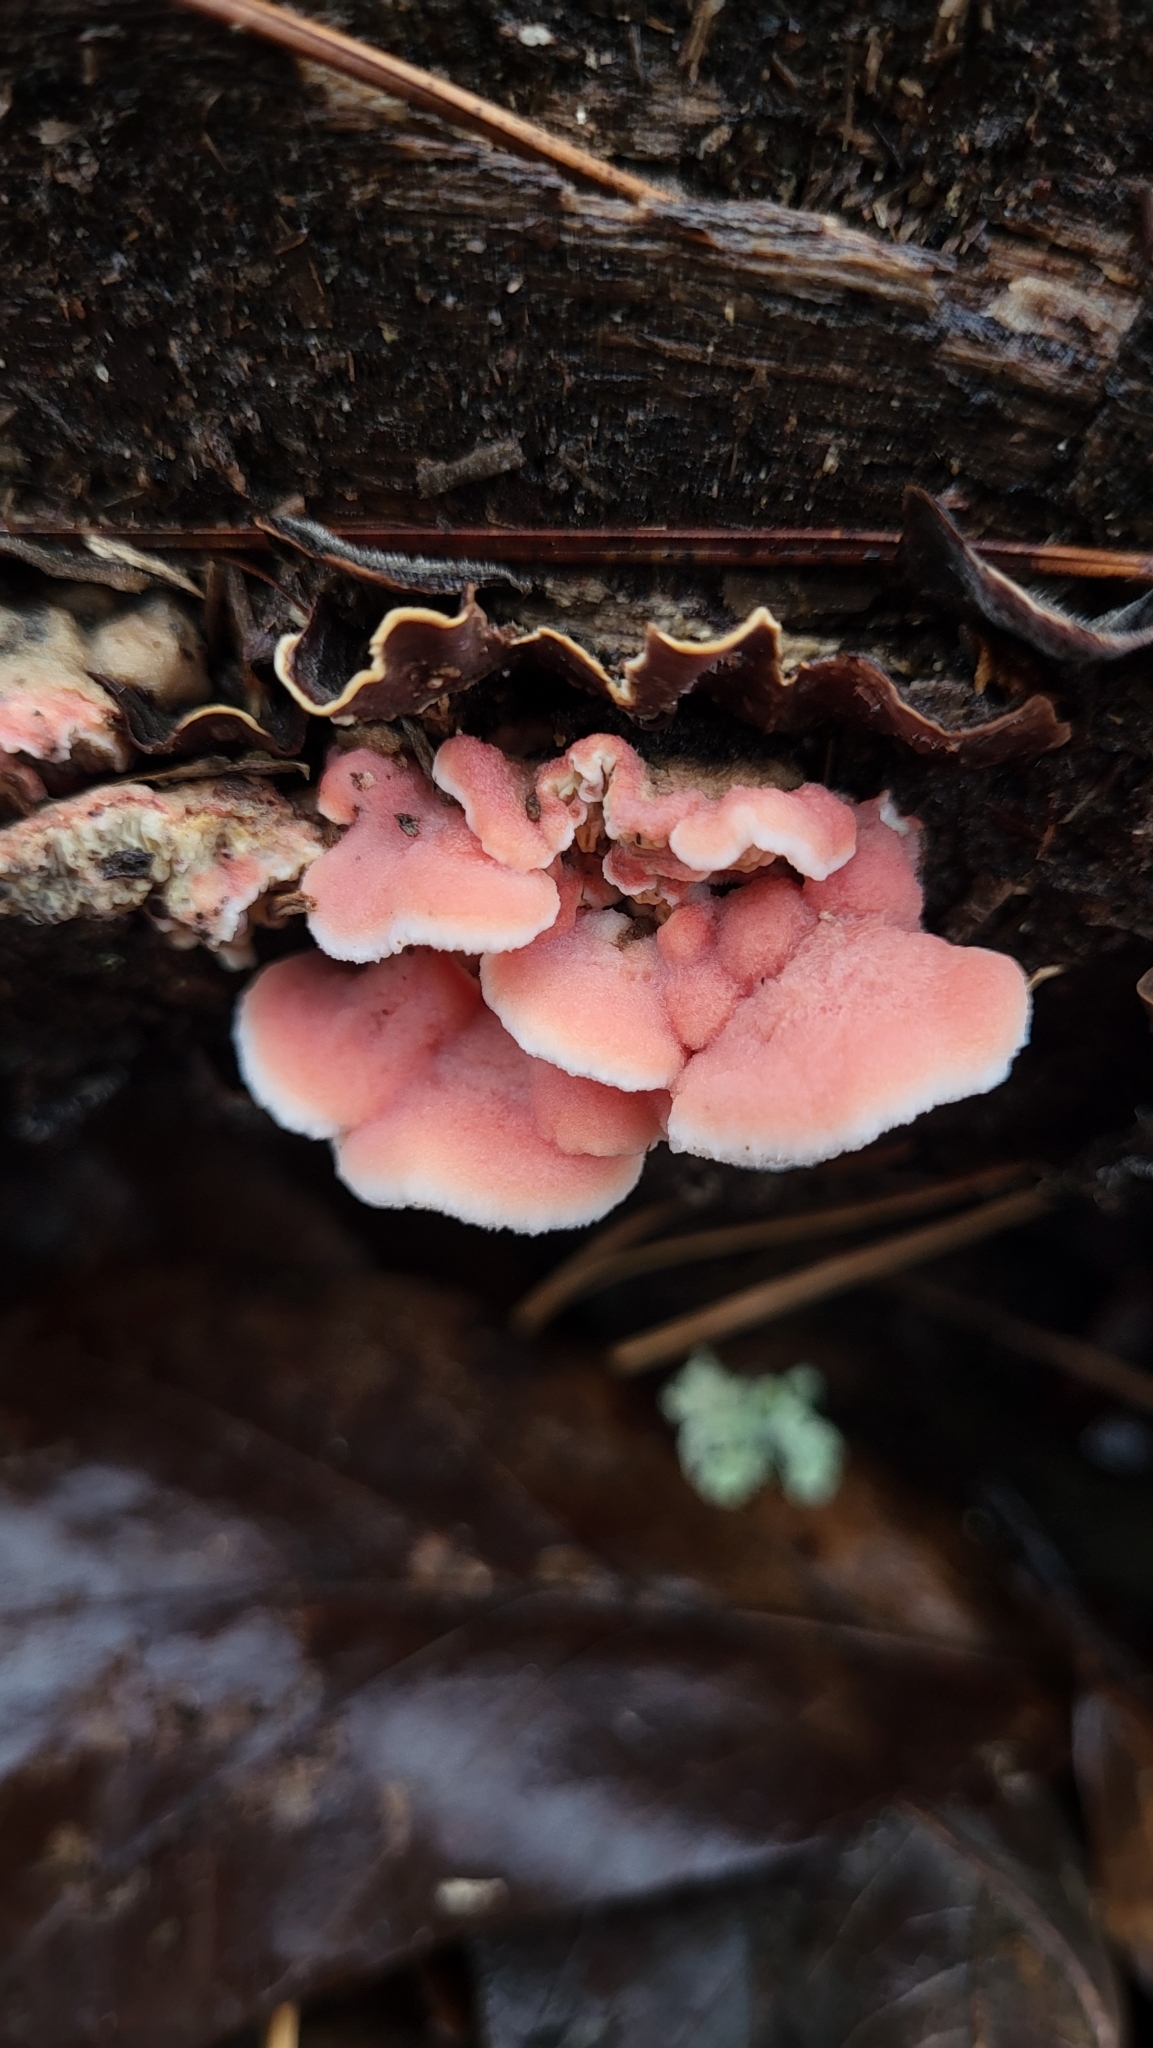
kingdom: Fungi
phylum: Basidiomycota
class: Agaricomycetes
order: Polyporales
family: Irpicaceae
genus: Byssomerulius
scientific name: Byssomerulius incarnatus
